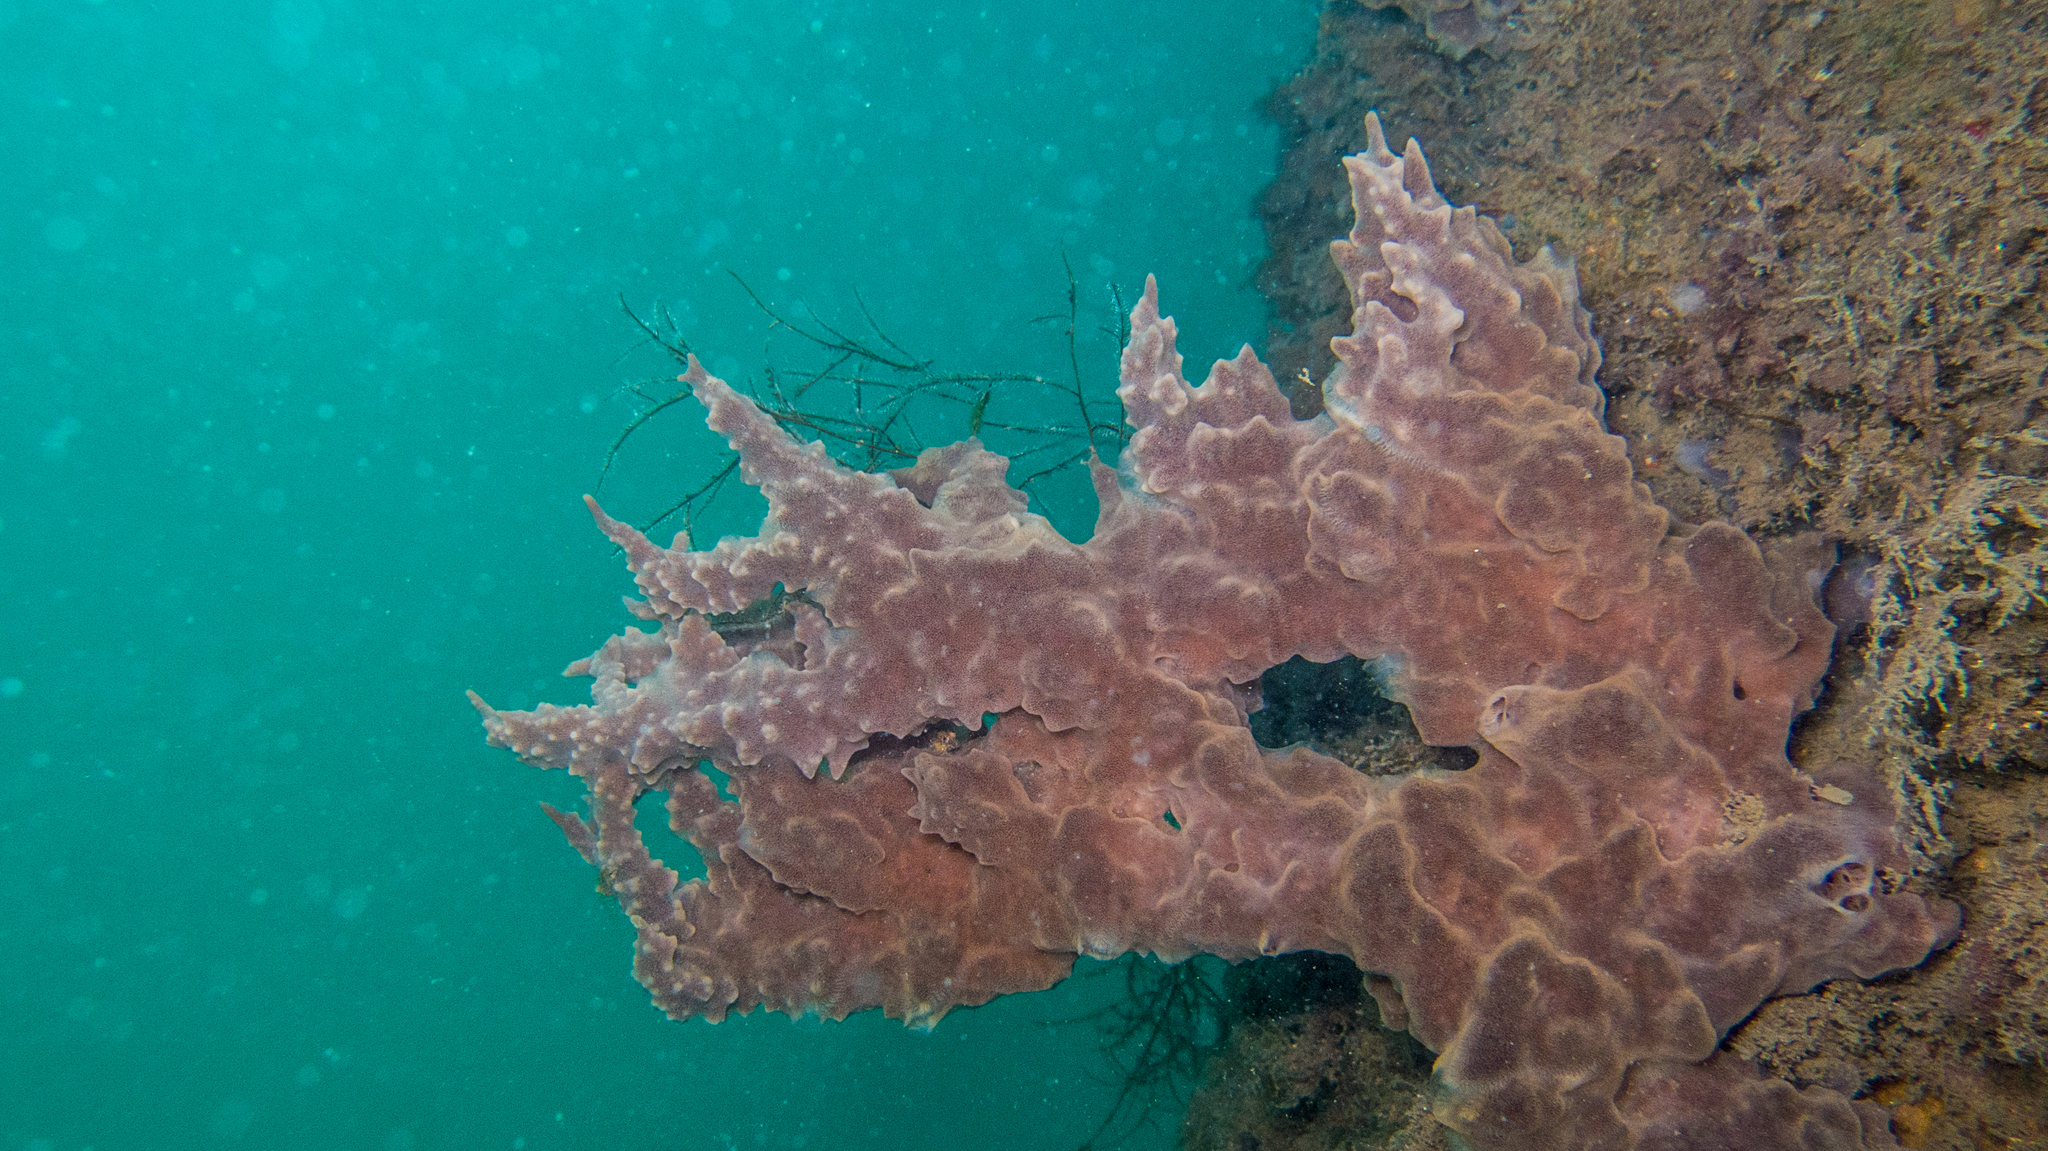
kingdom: Animalia
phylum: Porifera
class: Demospongiae
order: Poecilosclerida
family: Mycalidae
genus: Mycale
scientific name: Mycale angulosa
